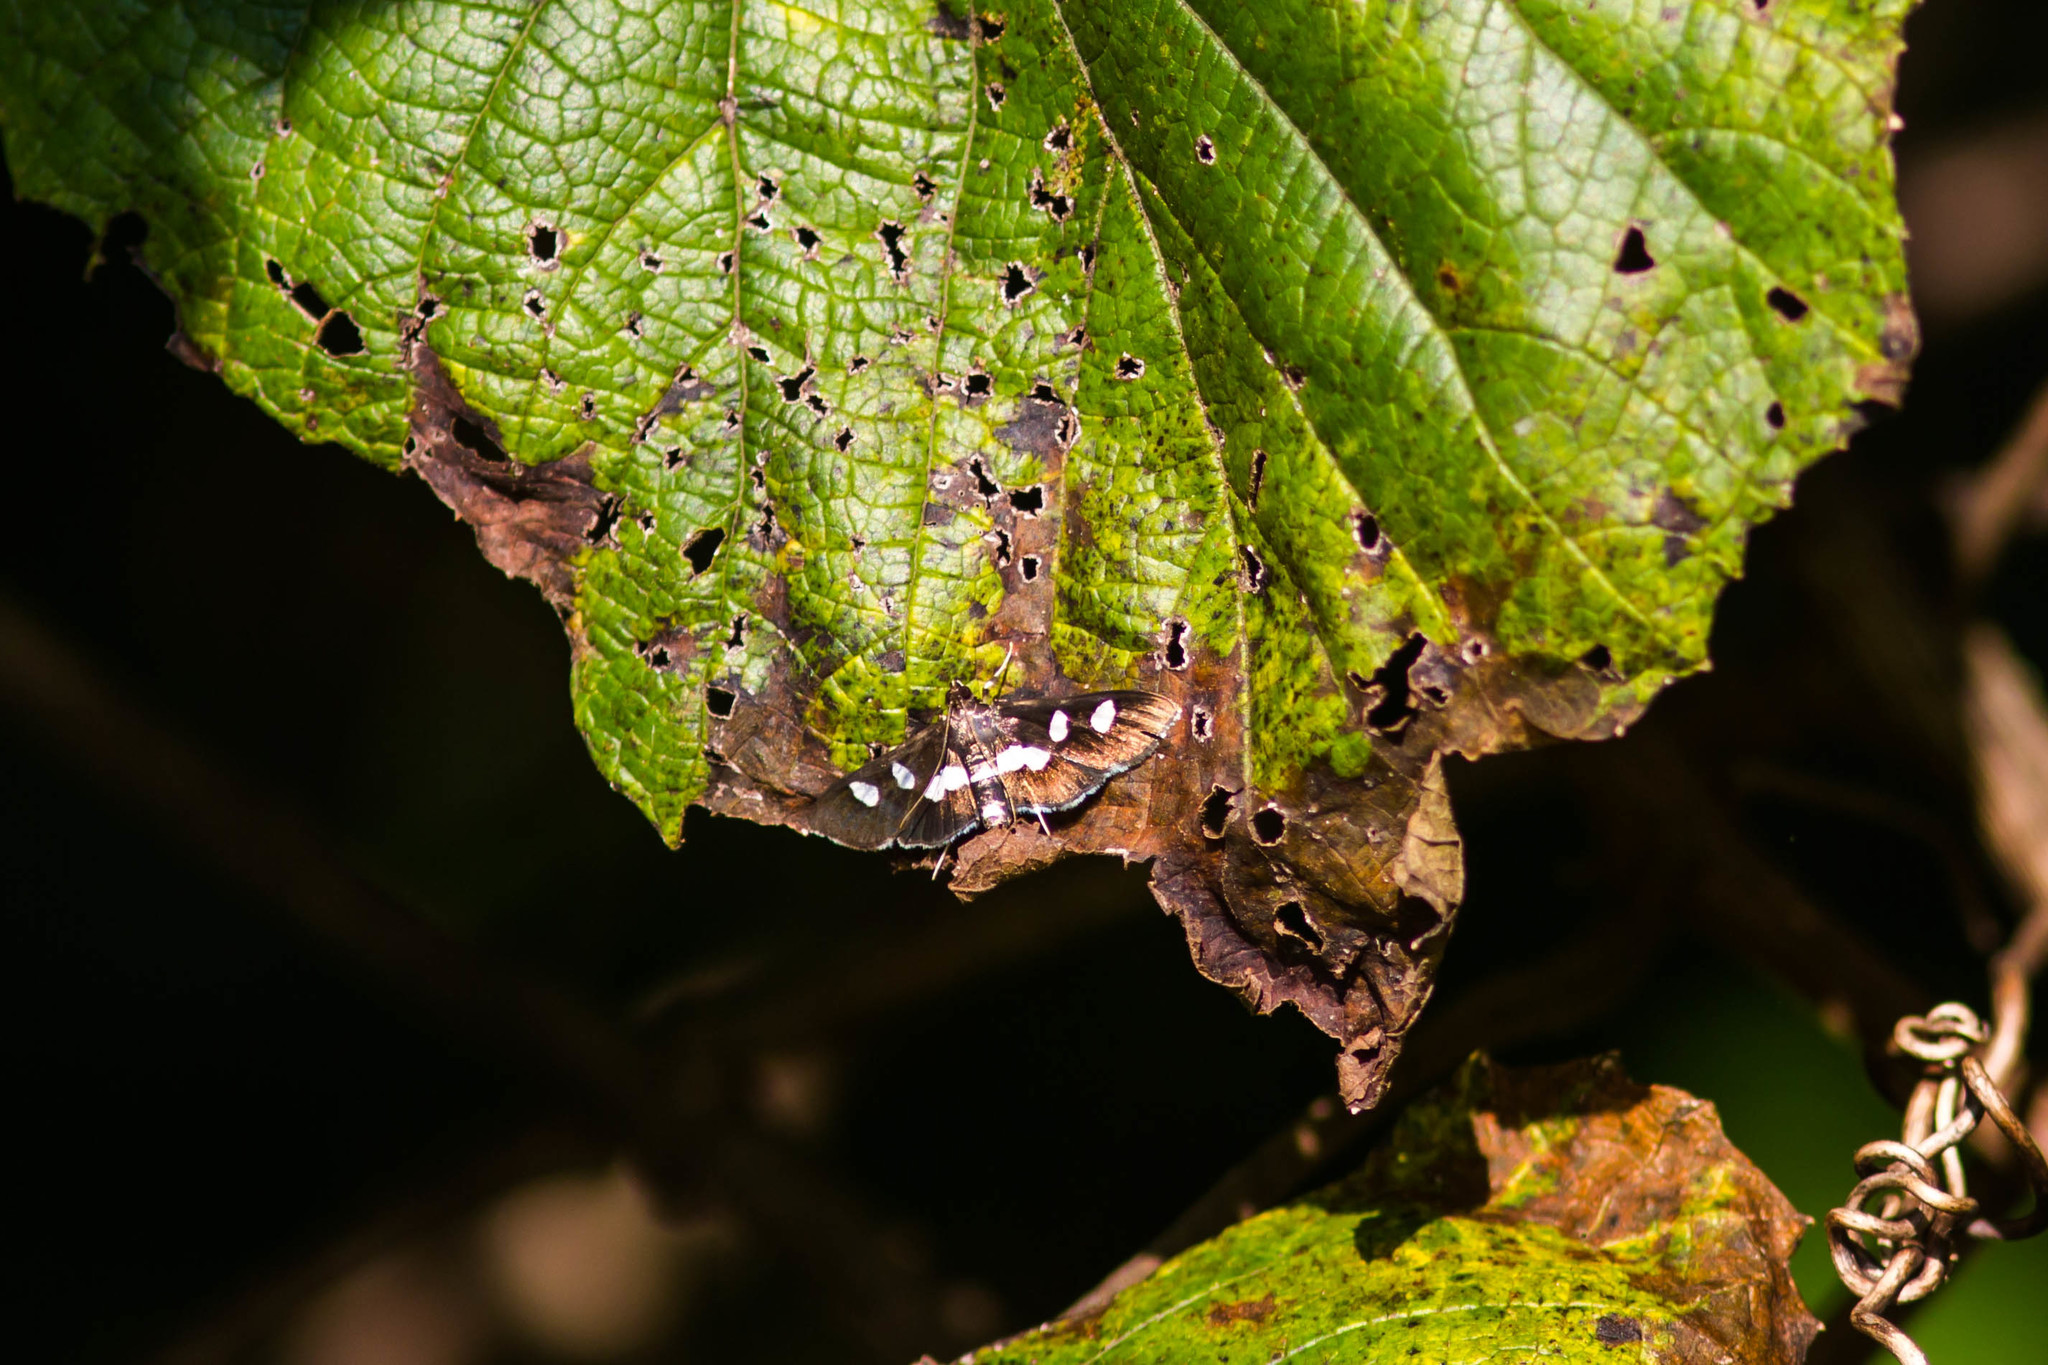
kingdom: Animalia
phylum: Arthropoda
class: Insecta
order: Lepidoptera
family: Crambidae
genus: Desmia
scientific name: Desmia
